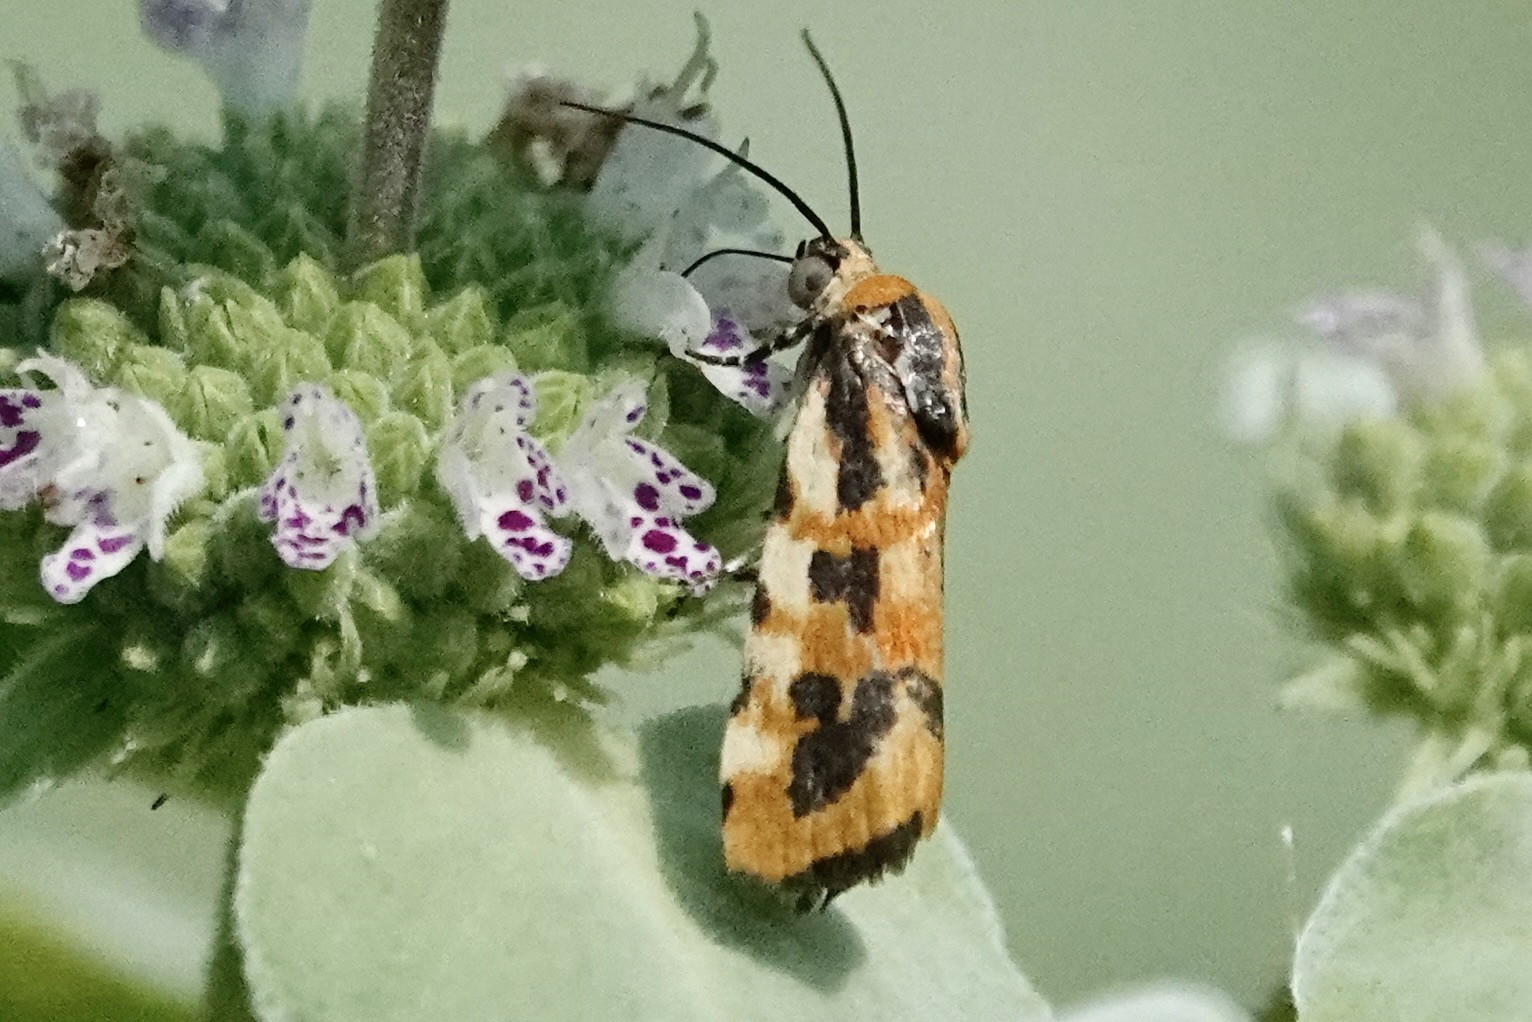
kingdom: Animalia
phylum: Arthropoda
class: Insecta
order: Lepidoptera
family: Noctuidae
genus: Acontia
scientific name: Acontia leo
